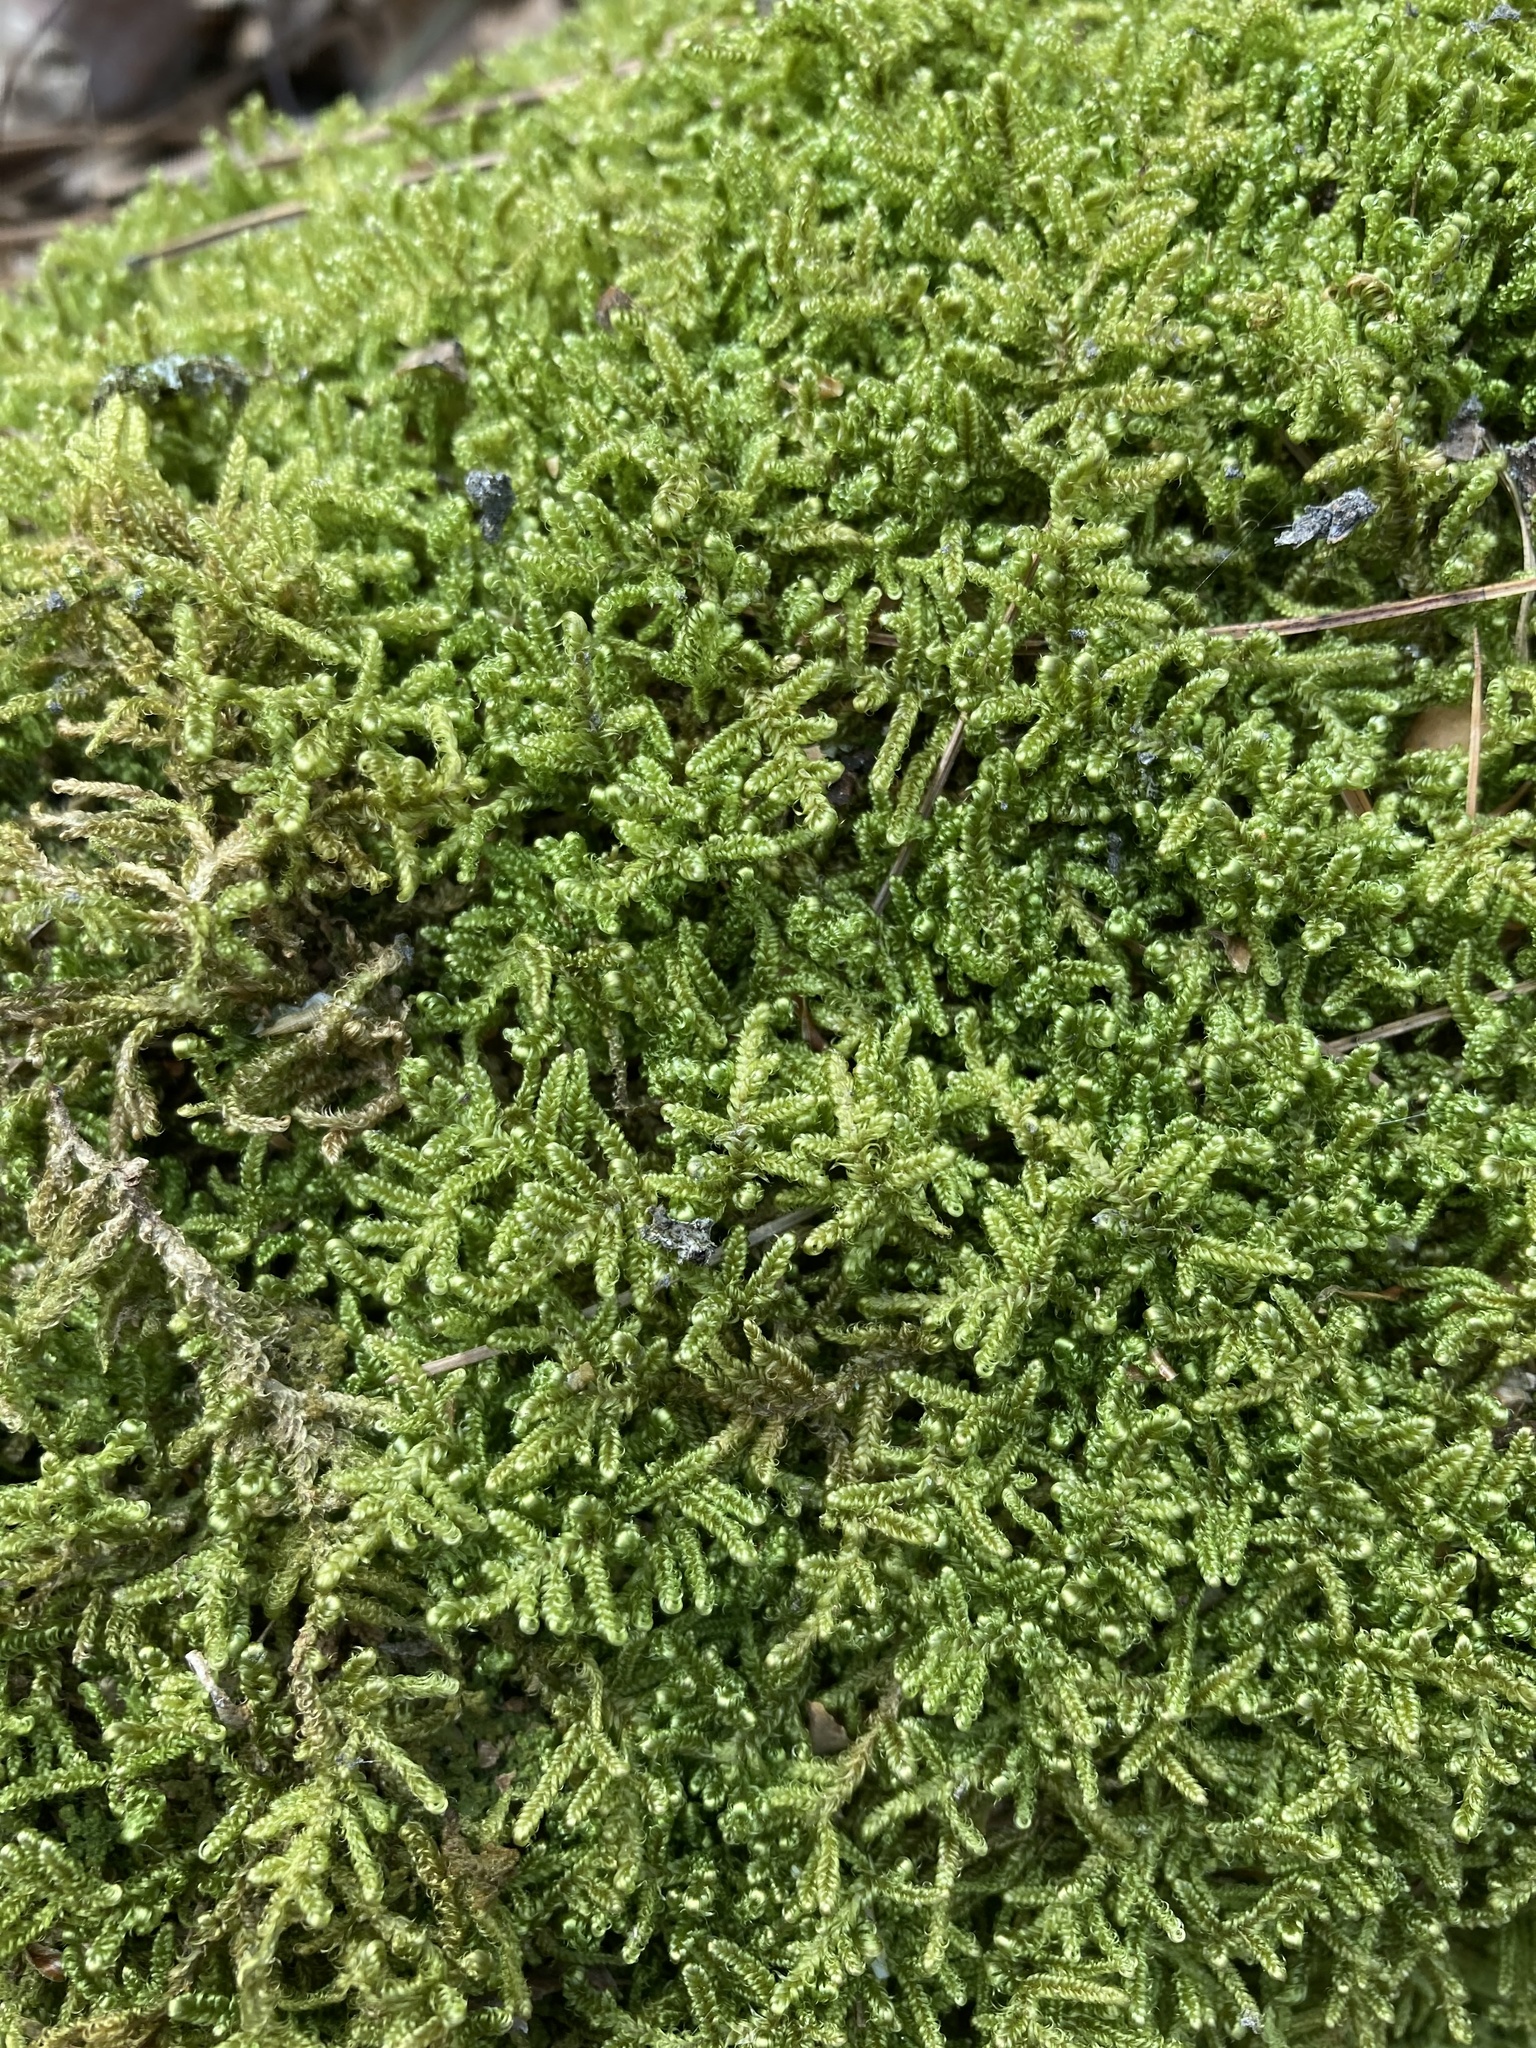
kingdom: Plantae
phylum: Bryophyta
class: Bryopsida
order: Hypnales
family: Callicladiaceae
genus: Callicladium
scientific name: Callicladium imponens
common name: Brocade moss
